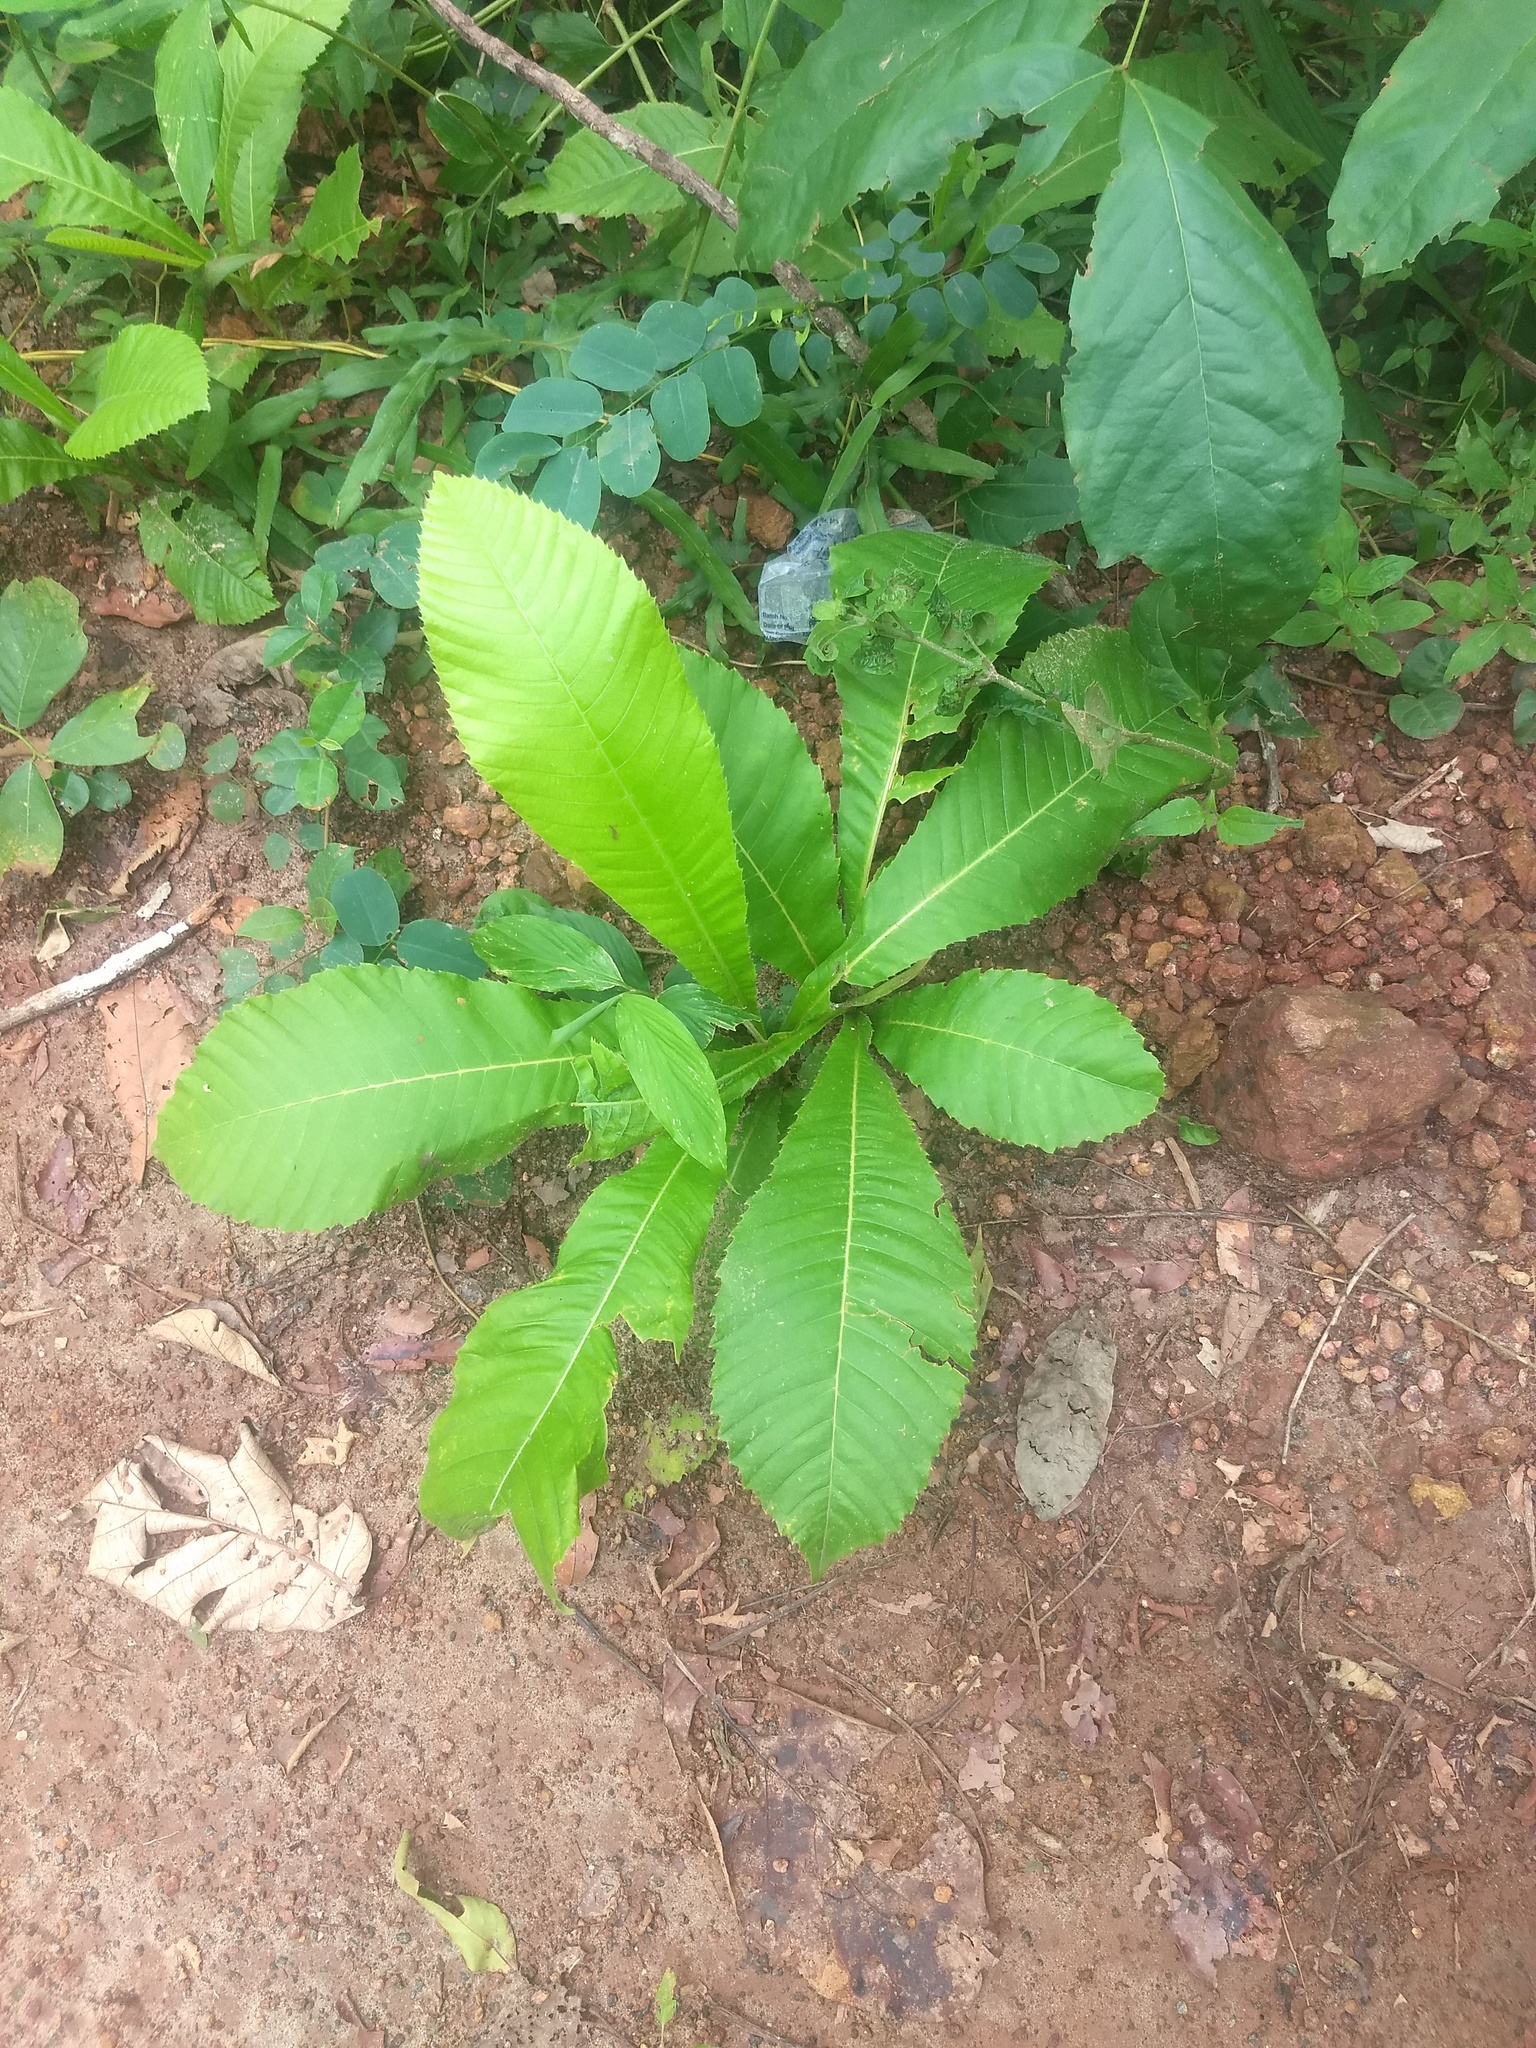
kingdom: Plantae
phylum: Tracheophyta
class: Magnoliopsida
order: Dilleniales
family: Dilleniaceae
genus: Dillenia
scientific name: Dillenia pentagyna
